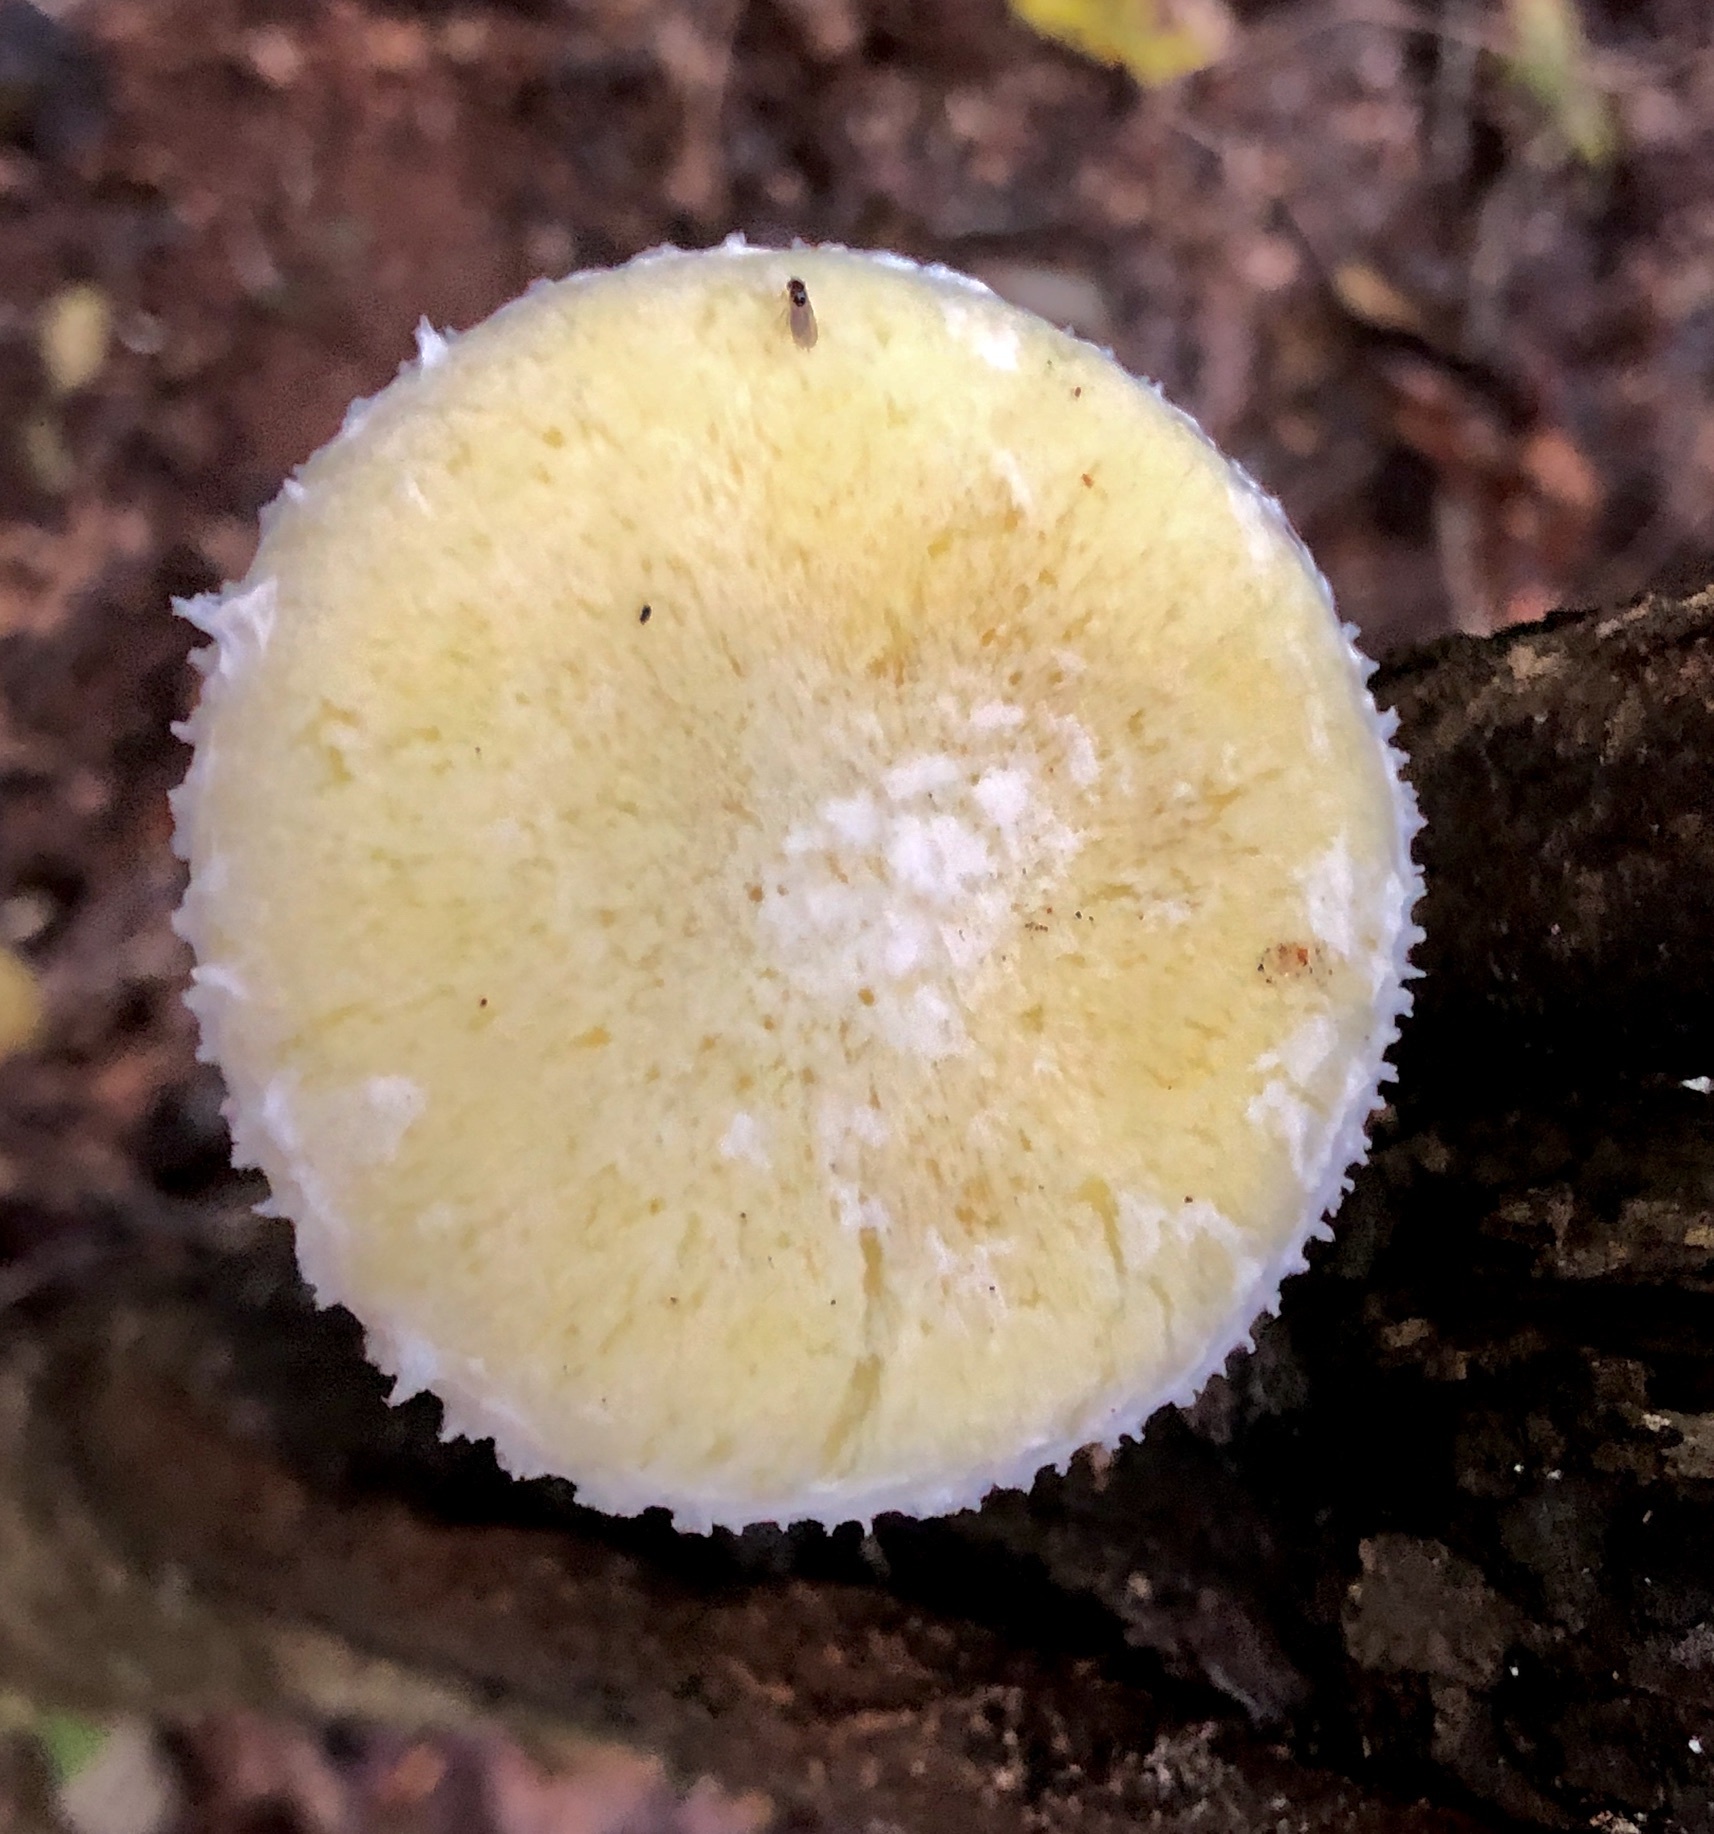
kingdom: Fungi
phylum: Basidiomycota
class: Agaricomycetes
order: Polyporales
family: Polyporaceae
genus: Lentinus
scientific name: Lentinus levis
